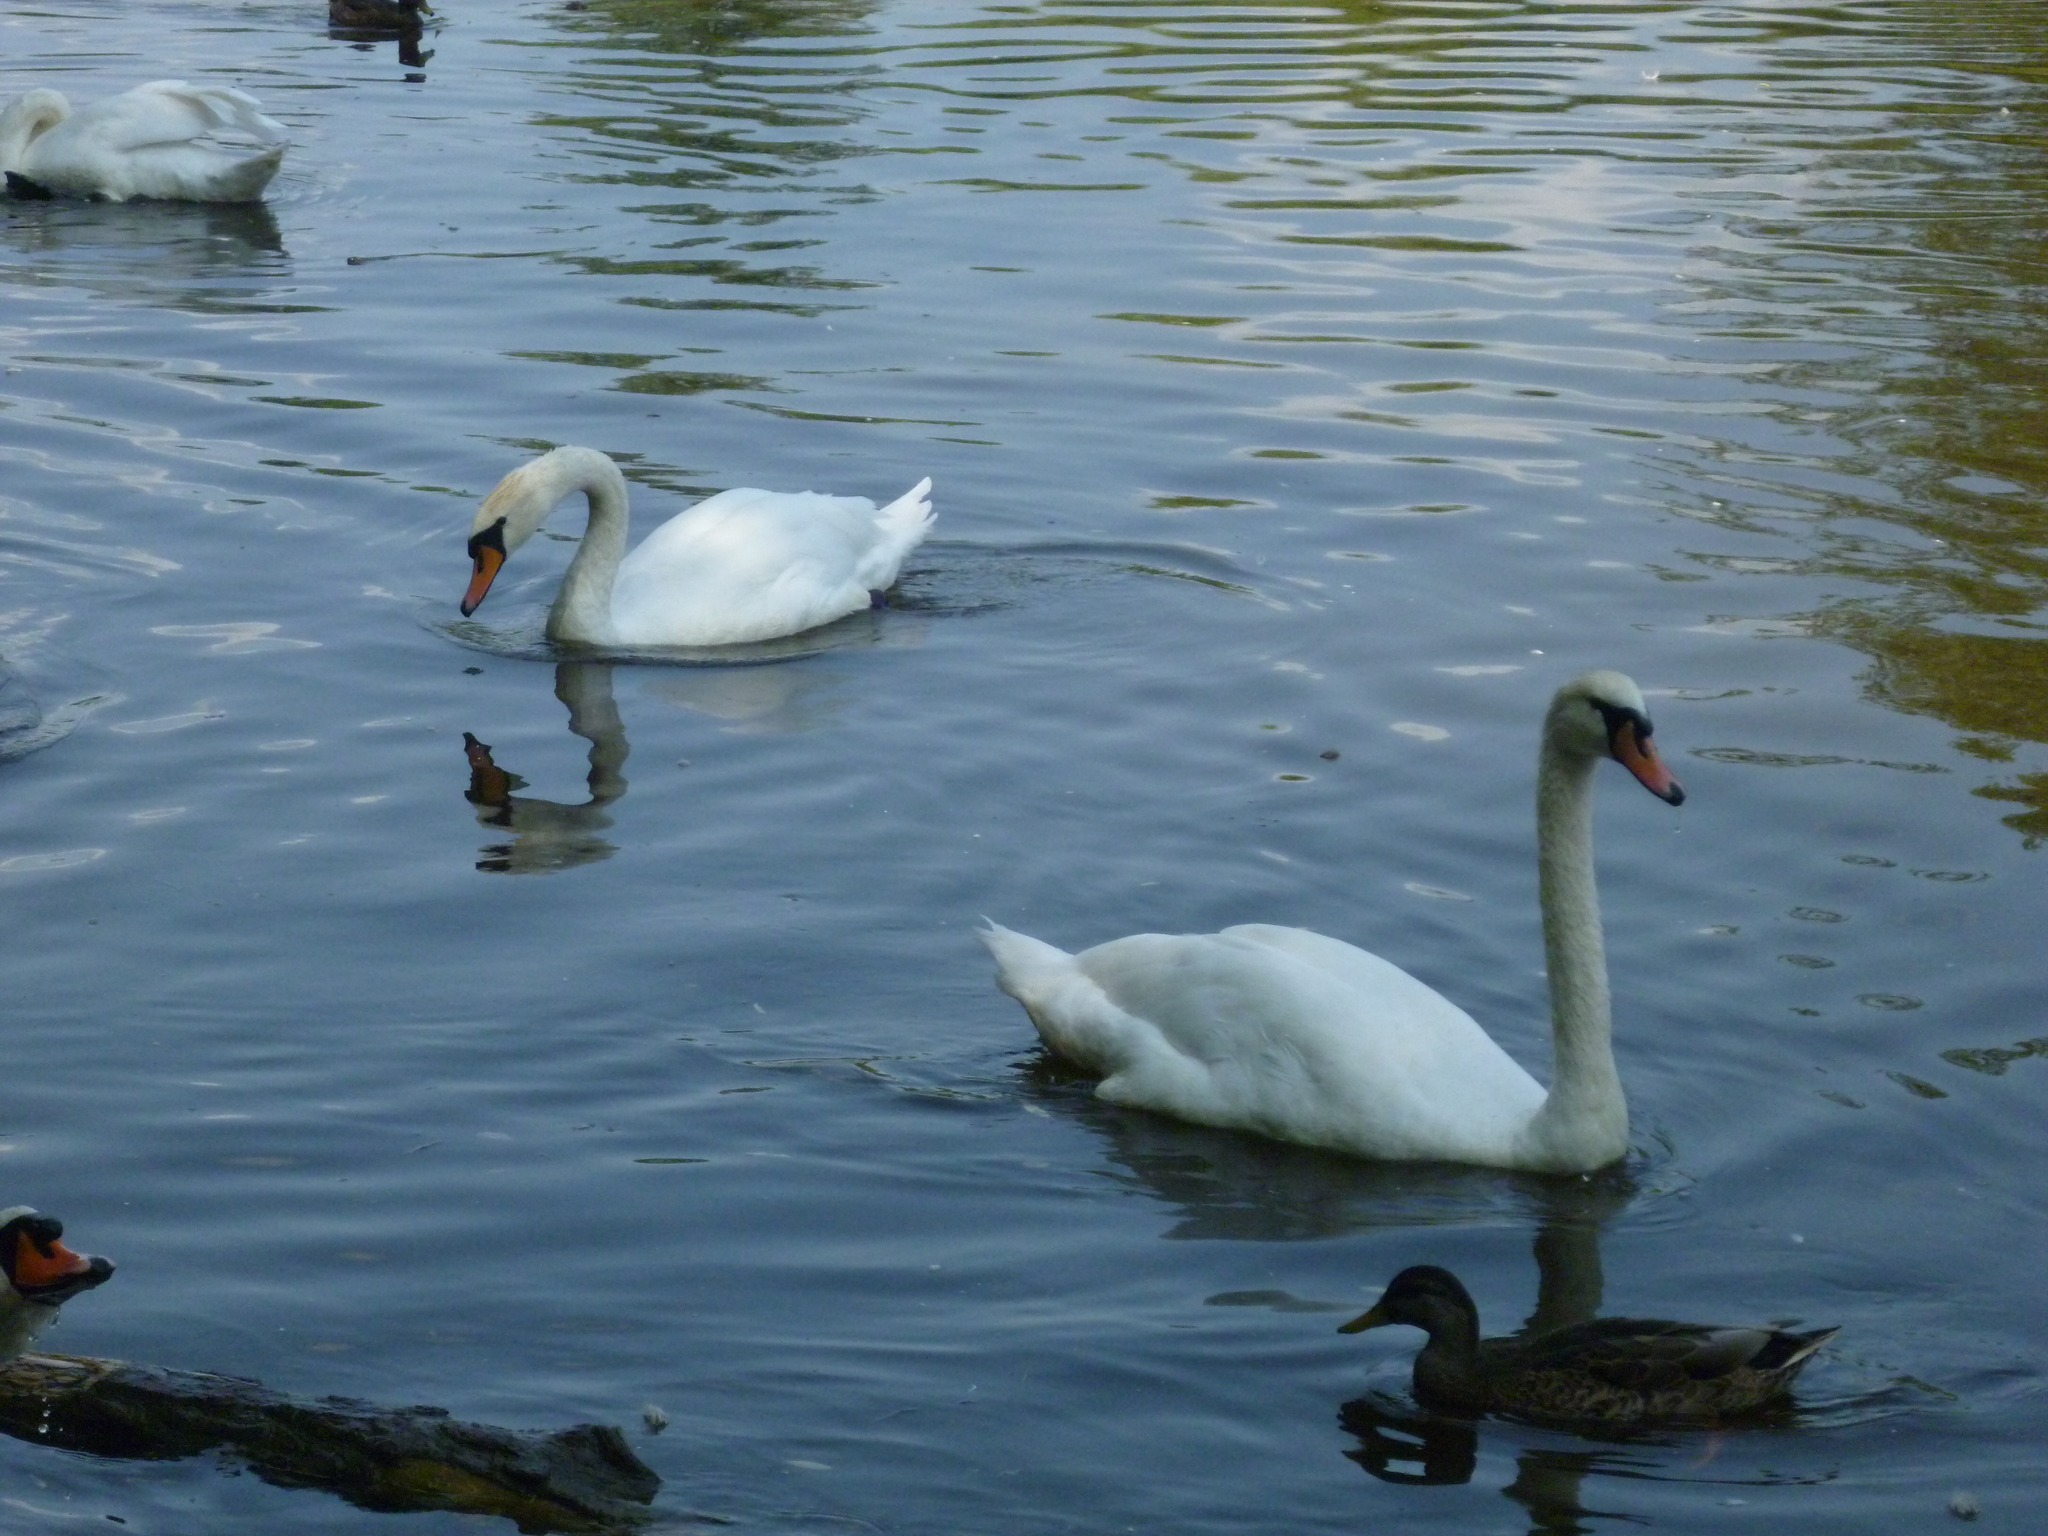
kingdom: Animalia
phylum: Chordata
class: Aves
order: Anseriformes
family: Anatidae
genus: Cygnus
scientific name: Cygnus olor
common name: Mute swan
